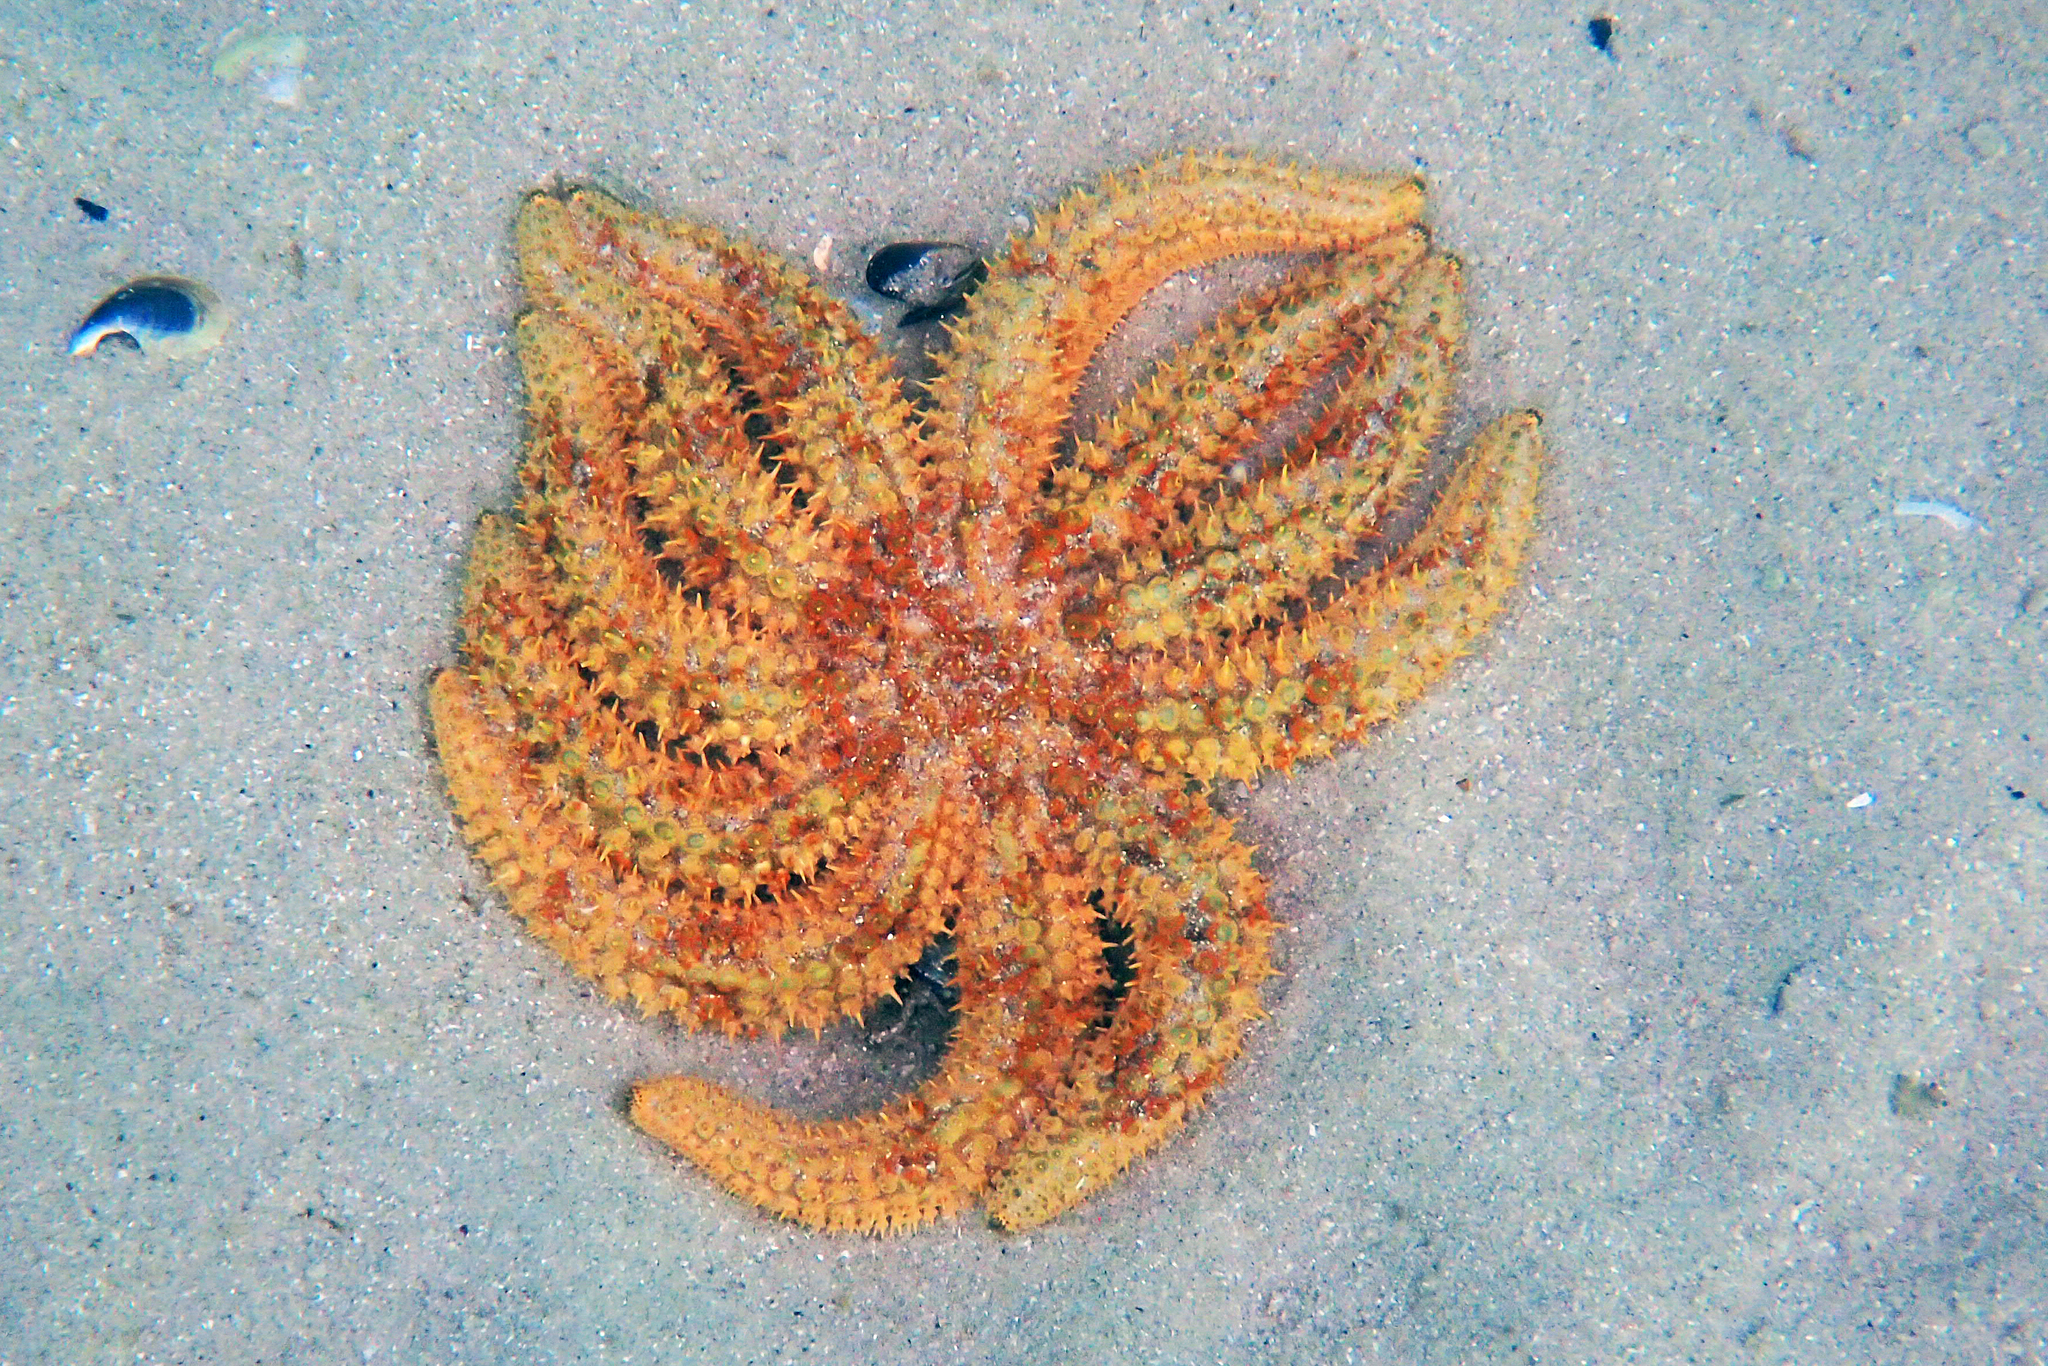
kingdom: Animalia
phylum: Echinodermata
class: Asteroidea
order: Forcipulatida
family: Asteriidae
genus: Coscinasterias
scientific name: Coscinasterias muricata
